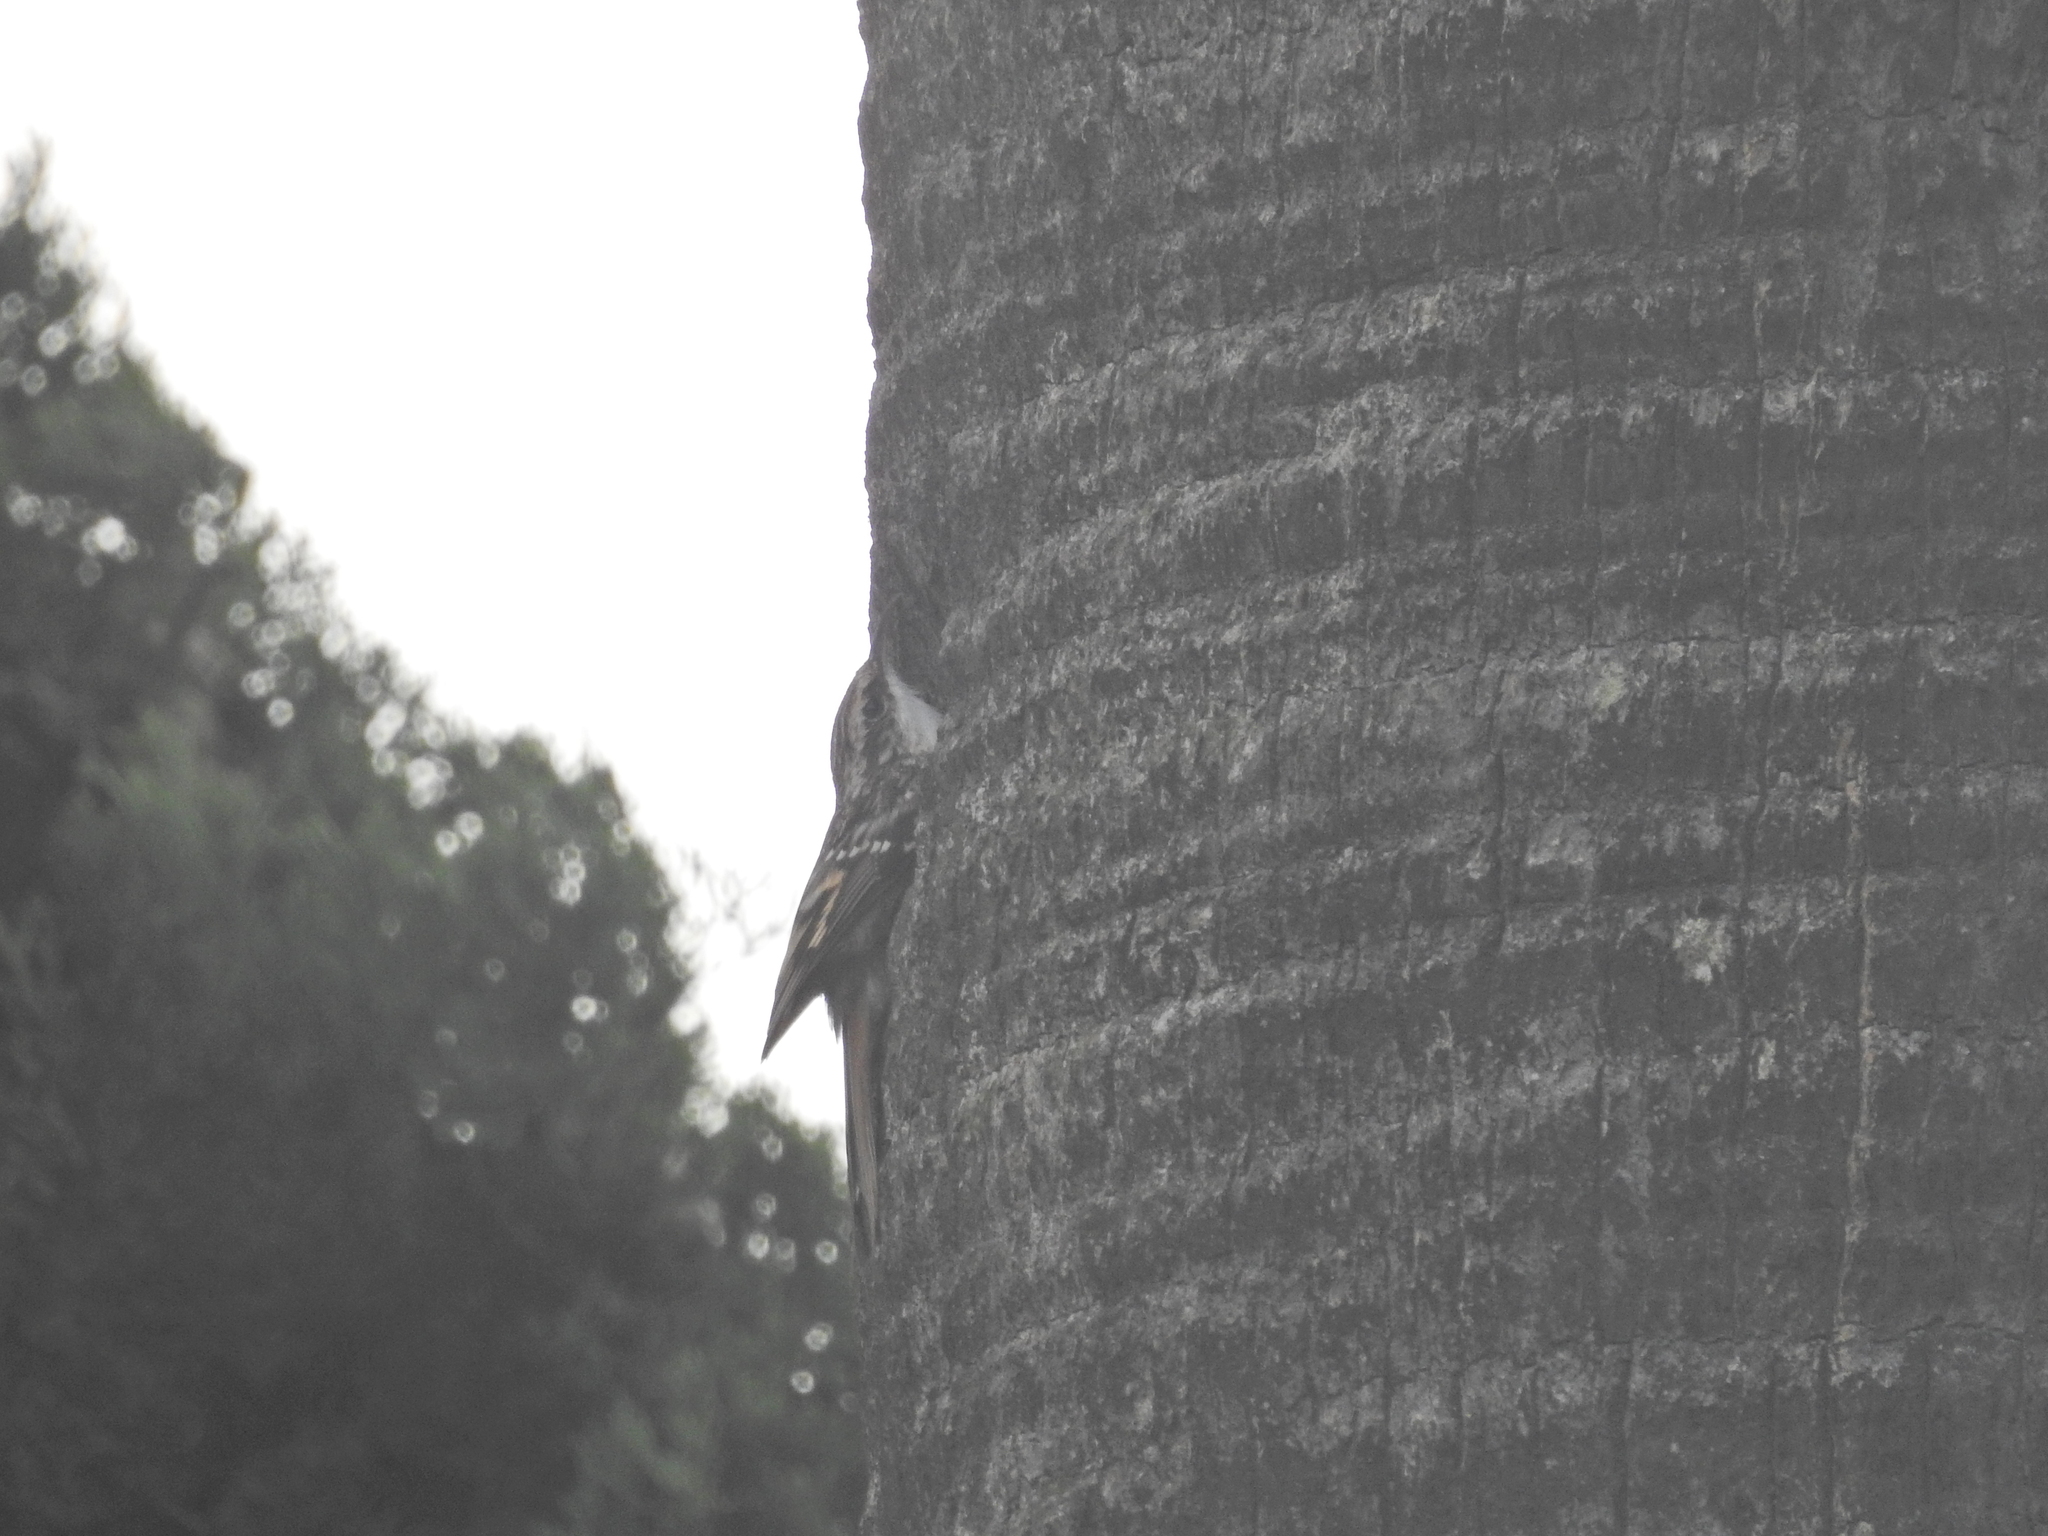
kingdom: Animalia
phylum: Chordata
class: Aves
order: Passeriformes
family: Certhiidae
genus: Certhia
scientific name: Certhia brachydactyla
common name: Short-toed treecreeper
